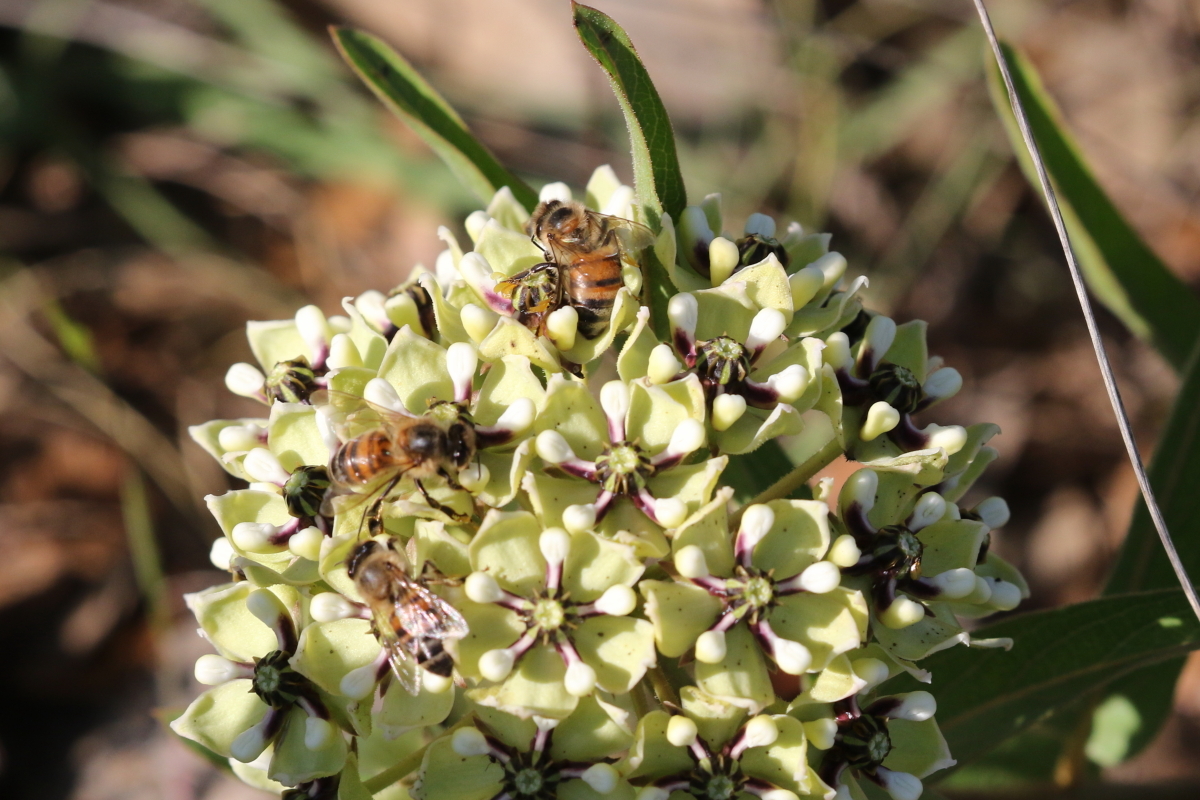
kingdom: Animalia
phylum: Arthropoda
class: Insecta
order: Hymenoptera
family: Apidae
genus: Apis
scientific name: Apis mellifera
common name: Honey bee
